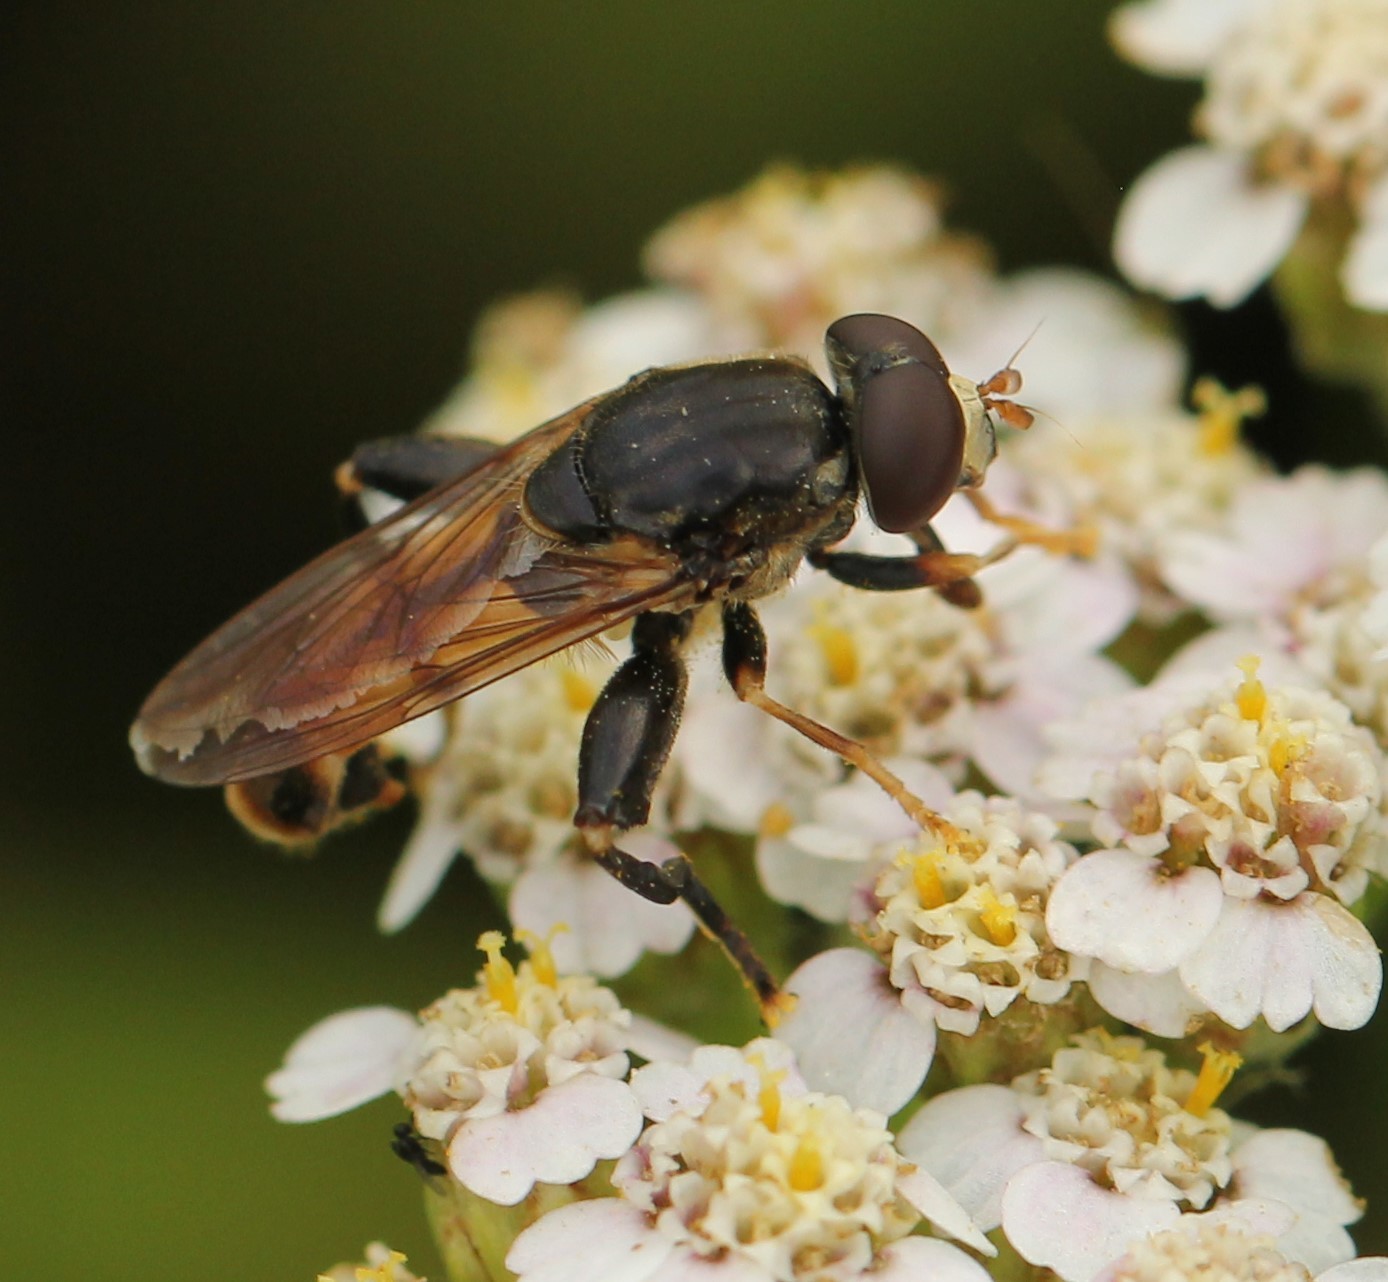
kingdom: Animalia
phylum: Arthropoda
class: Insecta
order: Diptera
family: Syrphidae
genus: Tropidia
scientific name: Tropidia quadrata
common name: Common thick-legged fly
